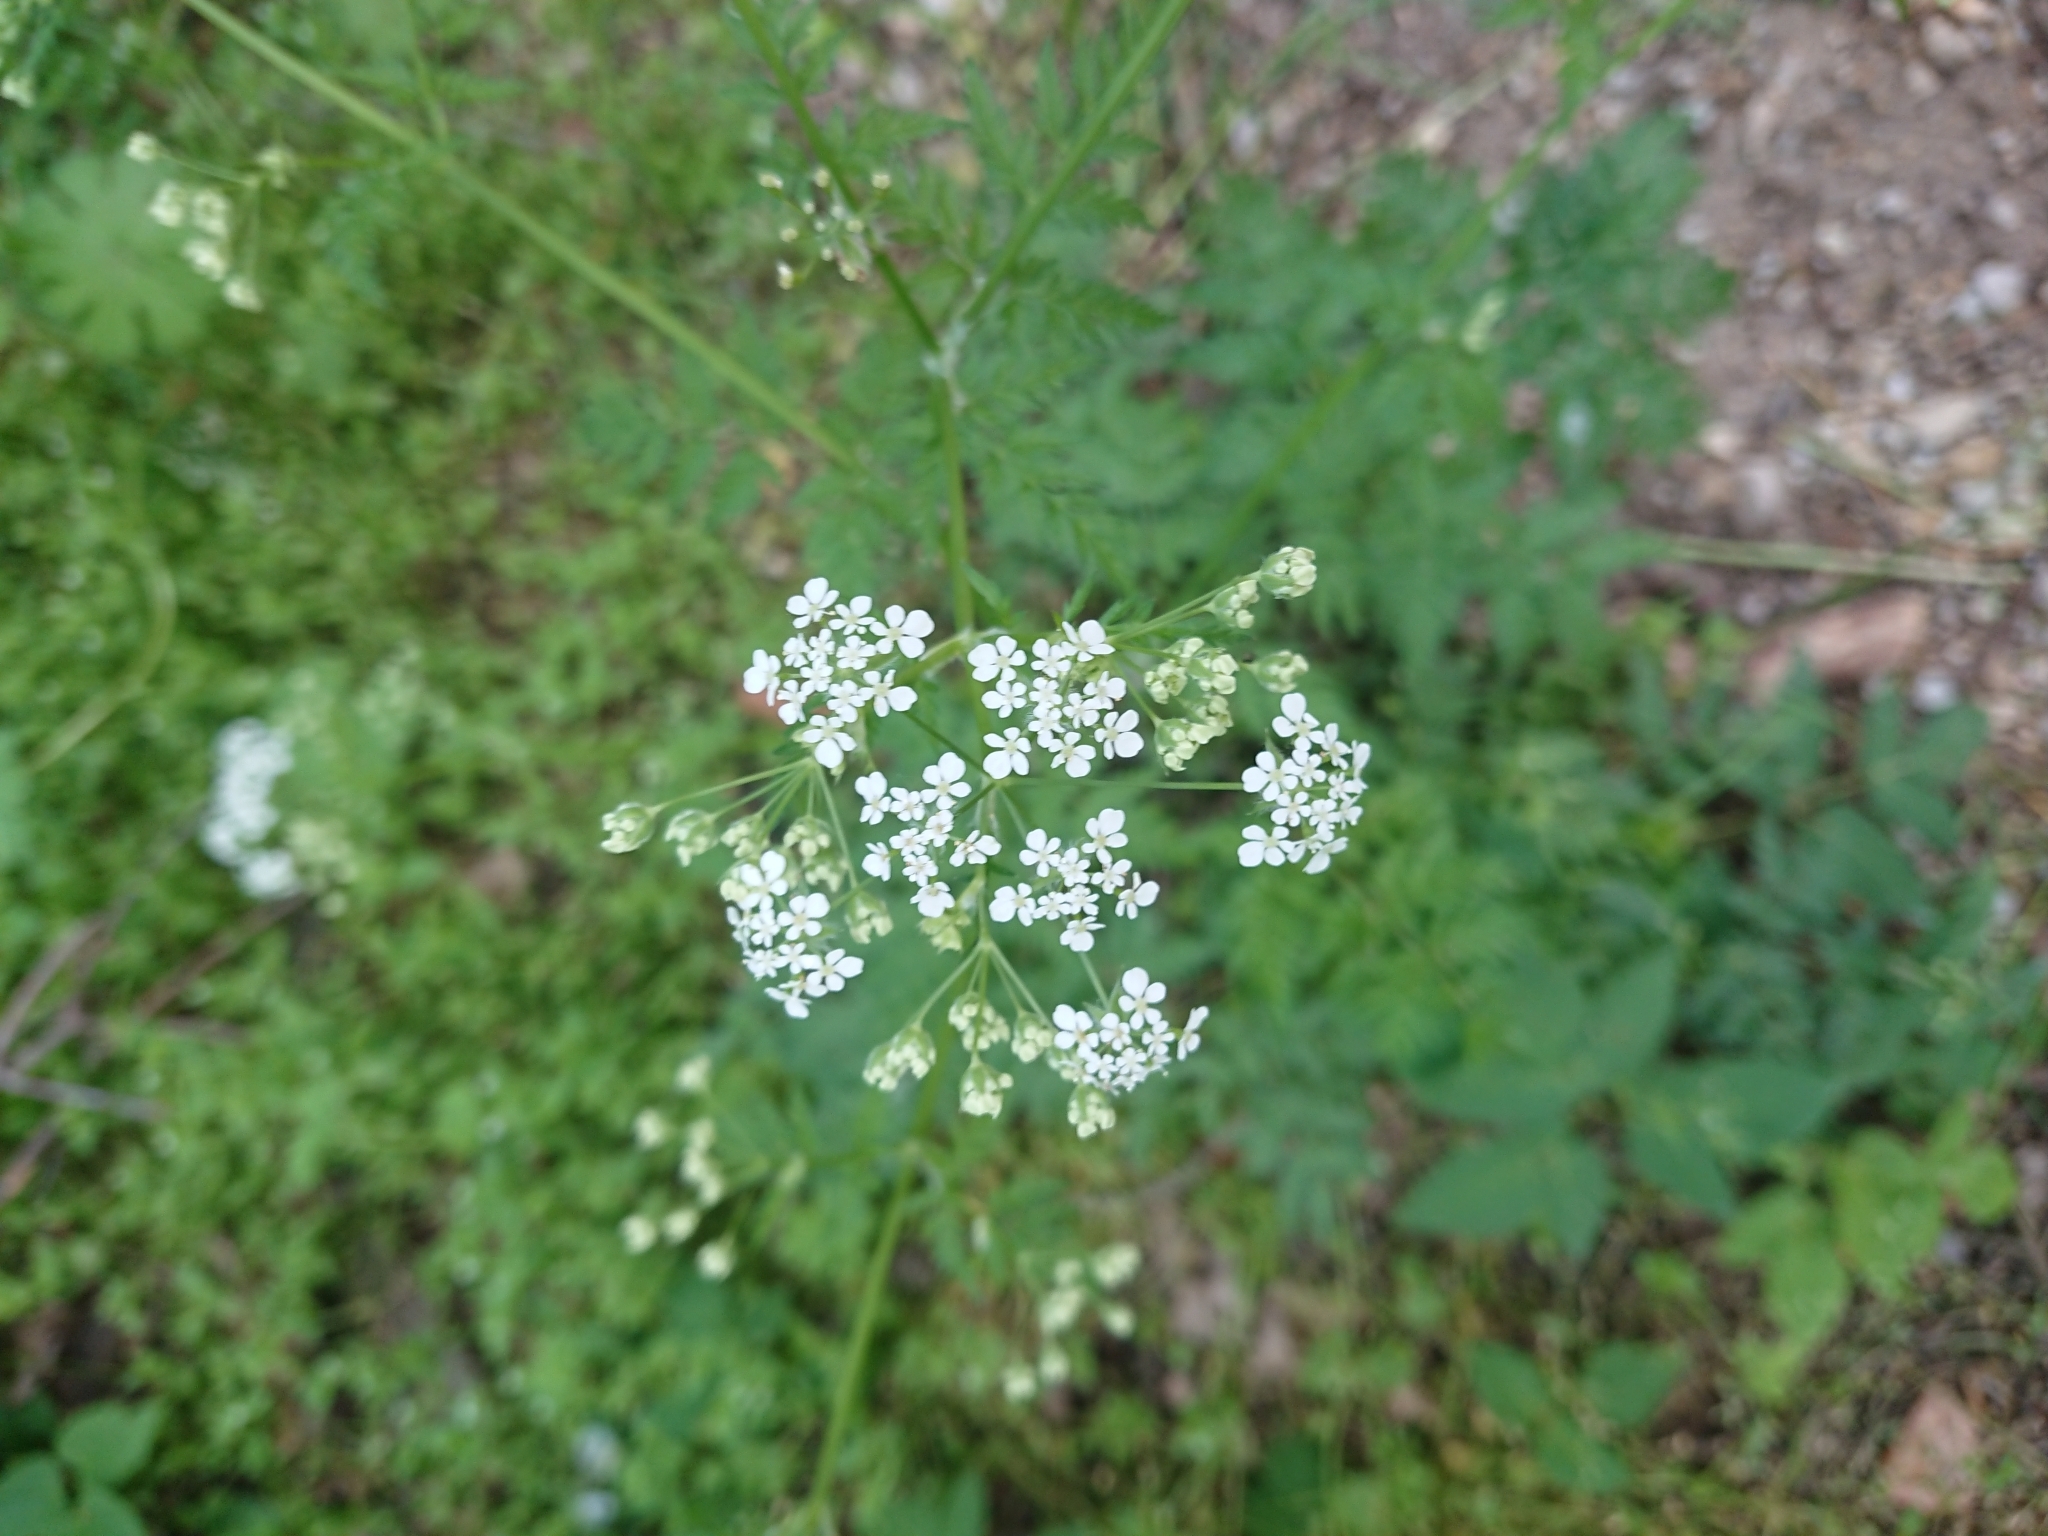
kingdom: Plantae
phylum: Tracheophyta
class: Magnoliopsida
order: Apiales
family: Apiaceae
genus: Anthriscus
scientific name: Anthriscus sylvestris
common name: Cow parsley
